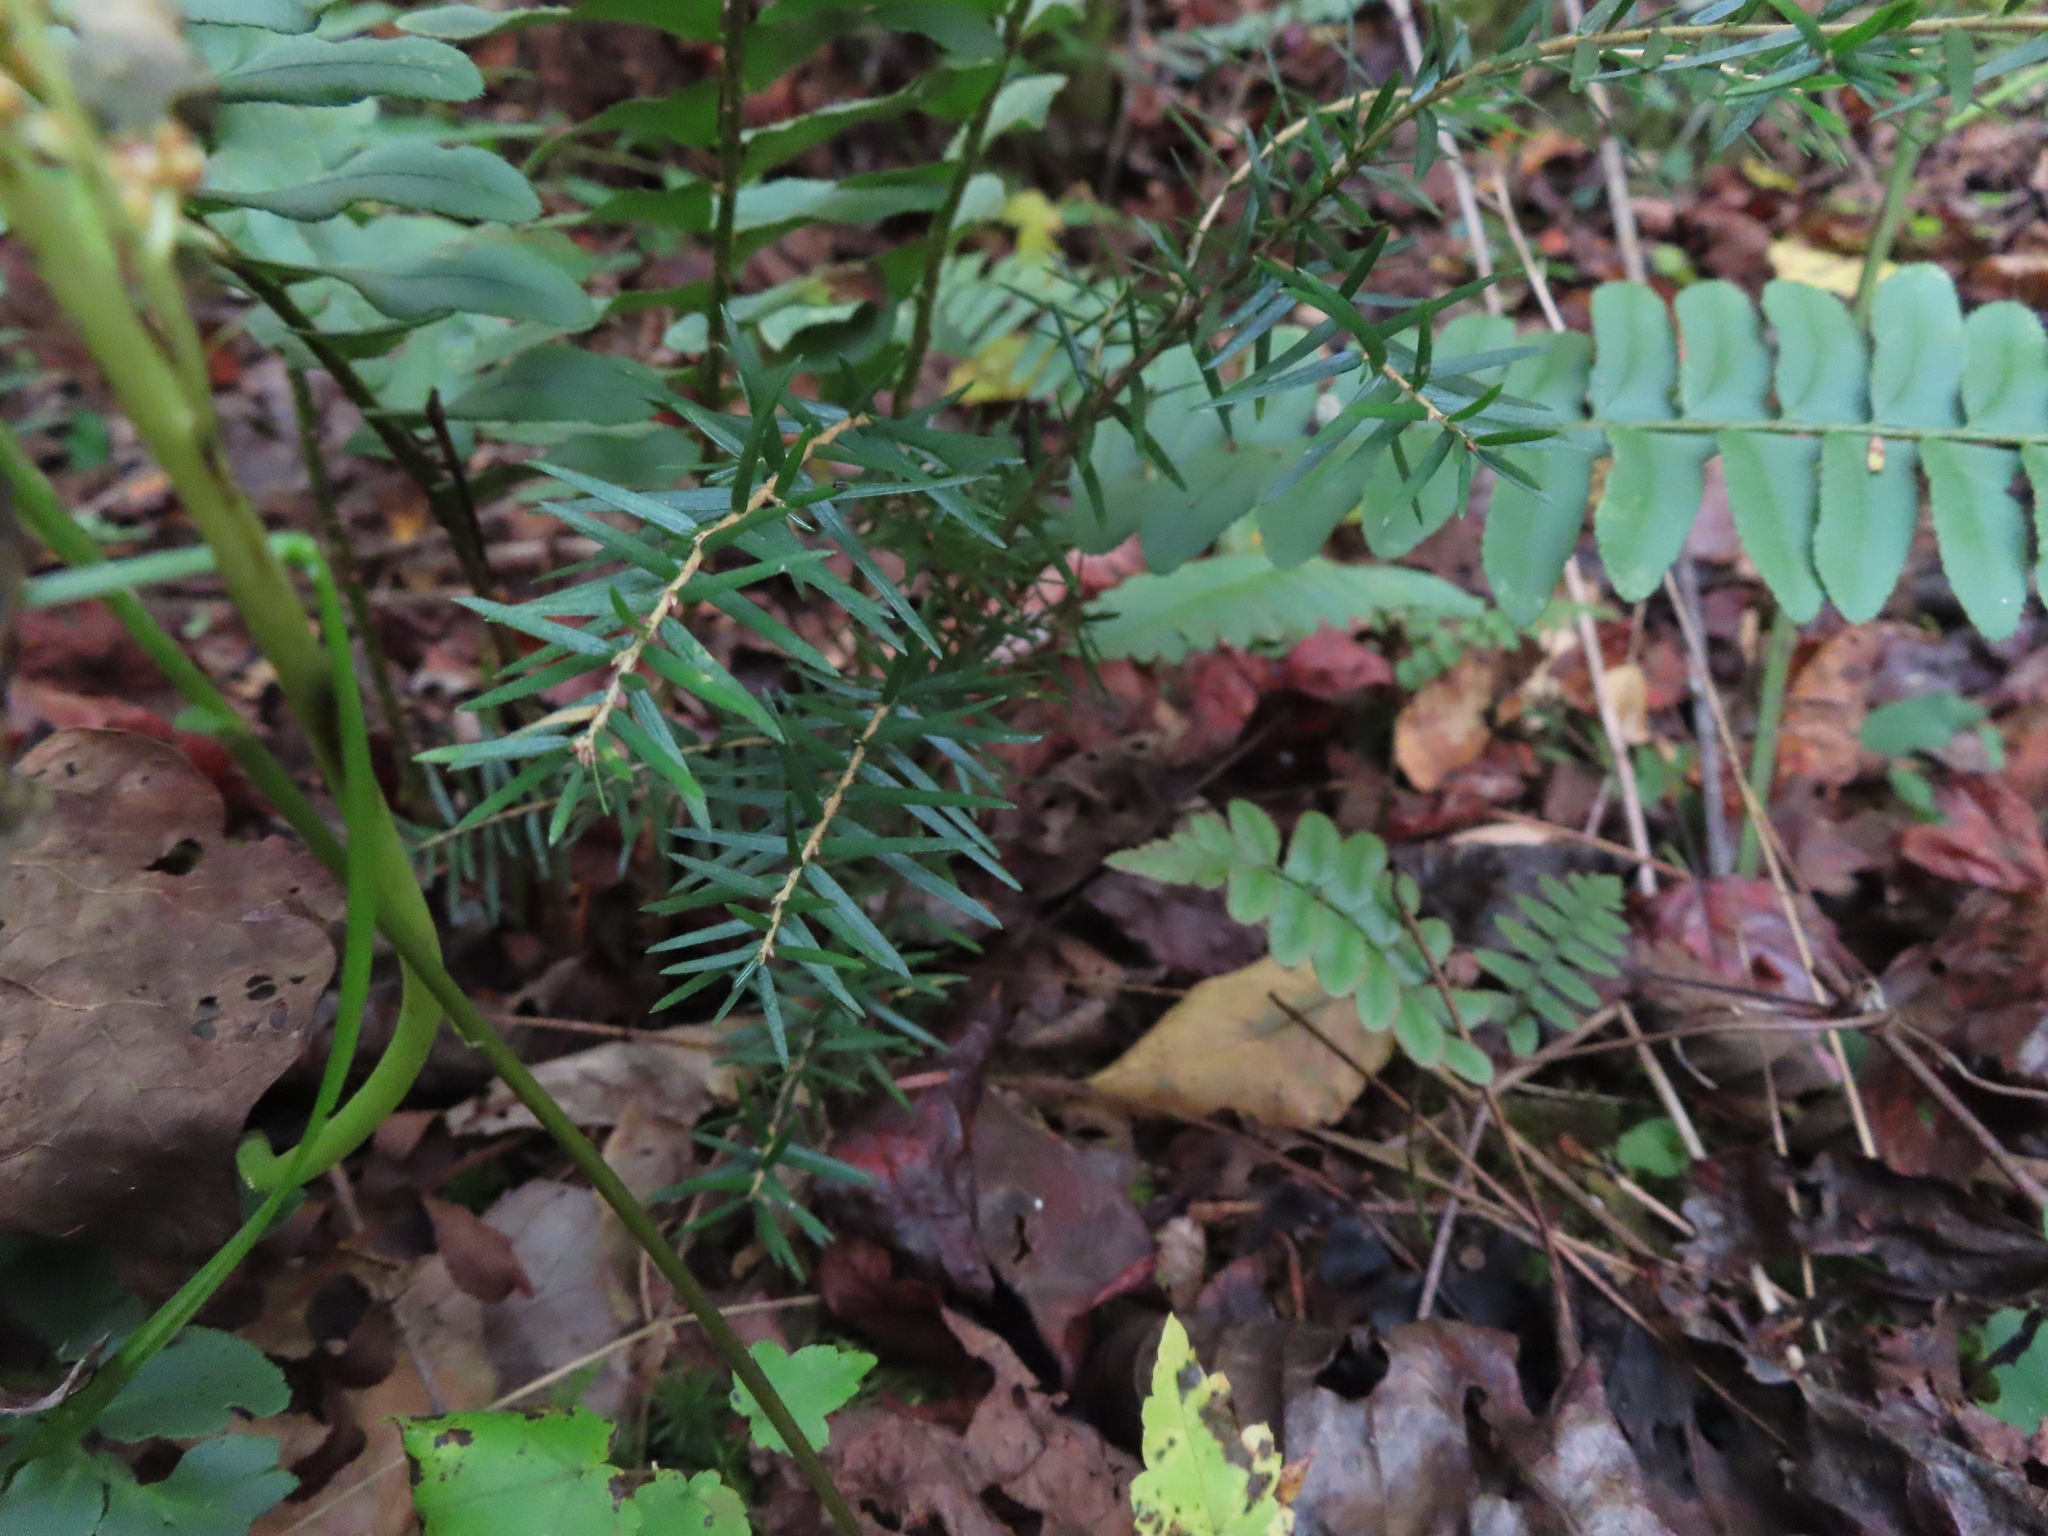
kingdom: Plantae
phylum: Tracheophyta
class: Pinopsida
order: Pinales
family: Pinaceae
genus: Tsuga
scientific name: Tsuga canadensis
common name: Eastern hemlock
